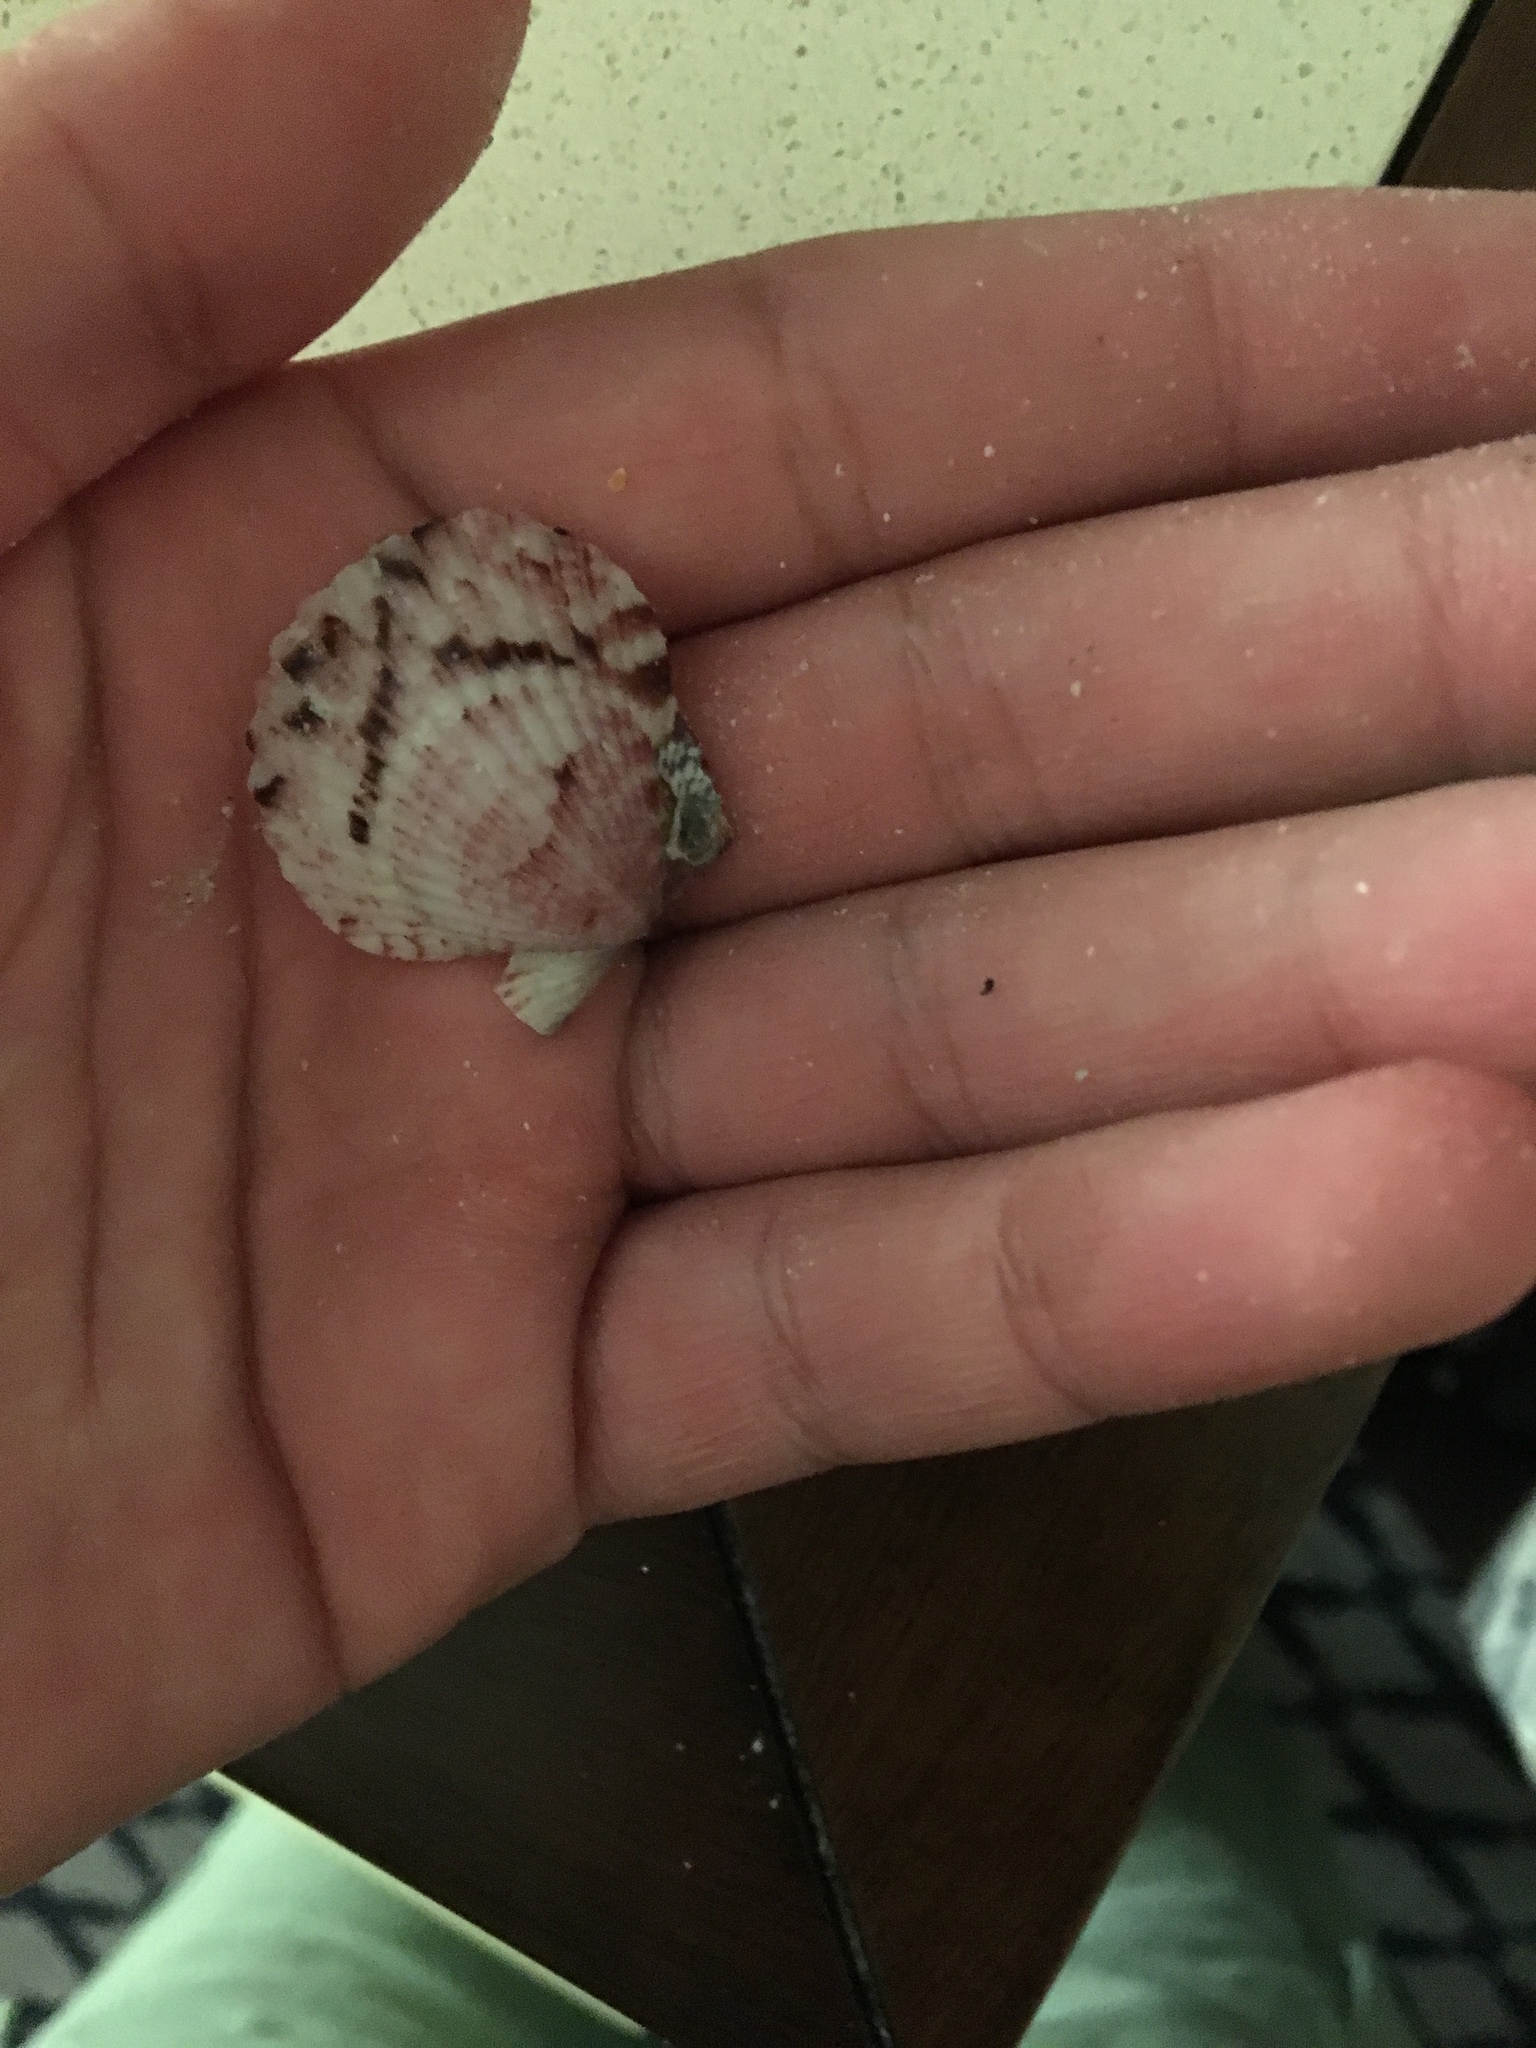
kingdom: Animalia
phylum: Mollusca
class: Bivalvia
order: Pectinida
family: Pectinidae
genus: Argopecten
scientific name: Argopecten gibbus
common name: Atlantic calico scallop
